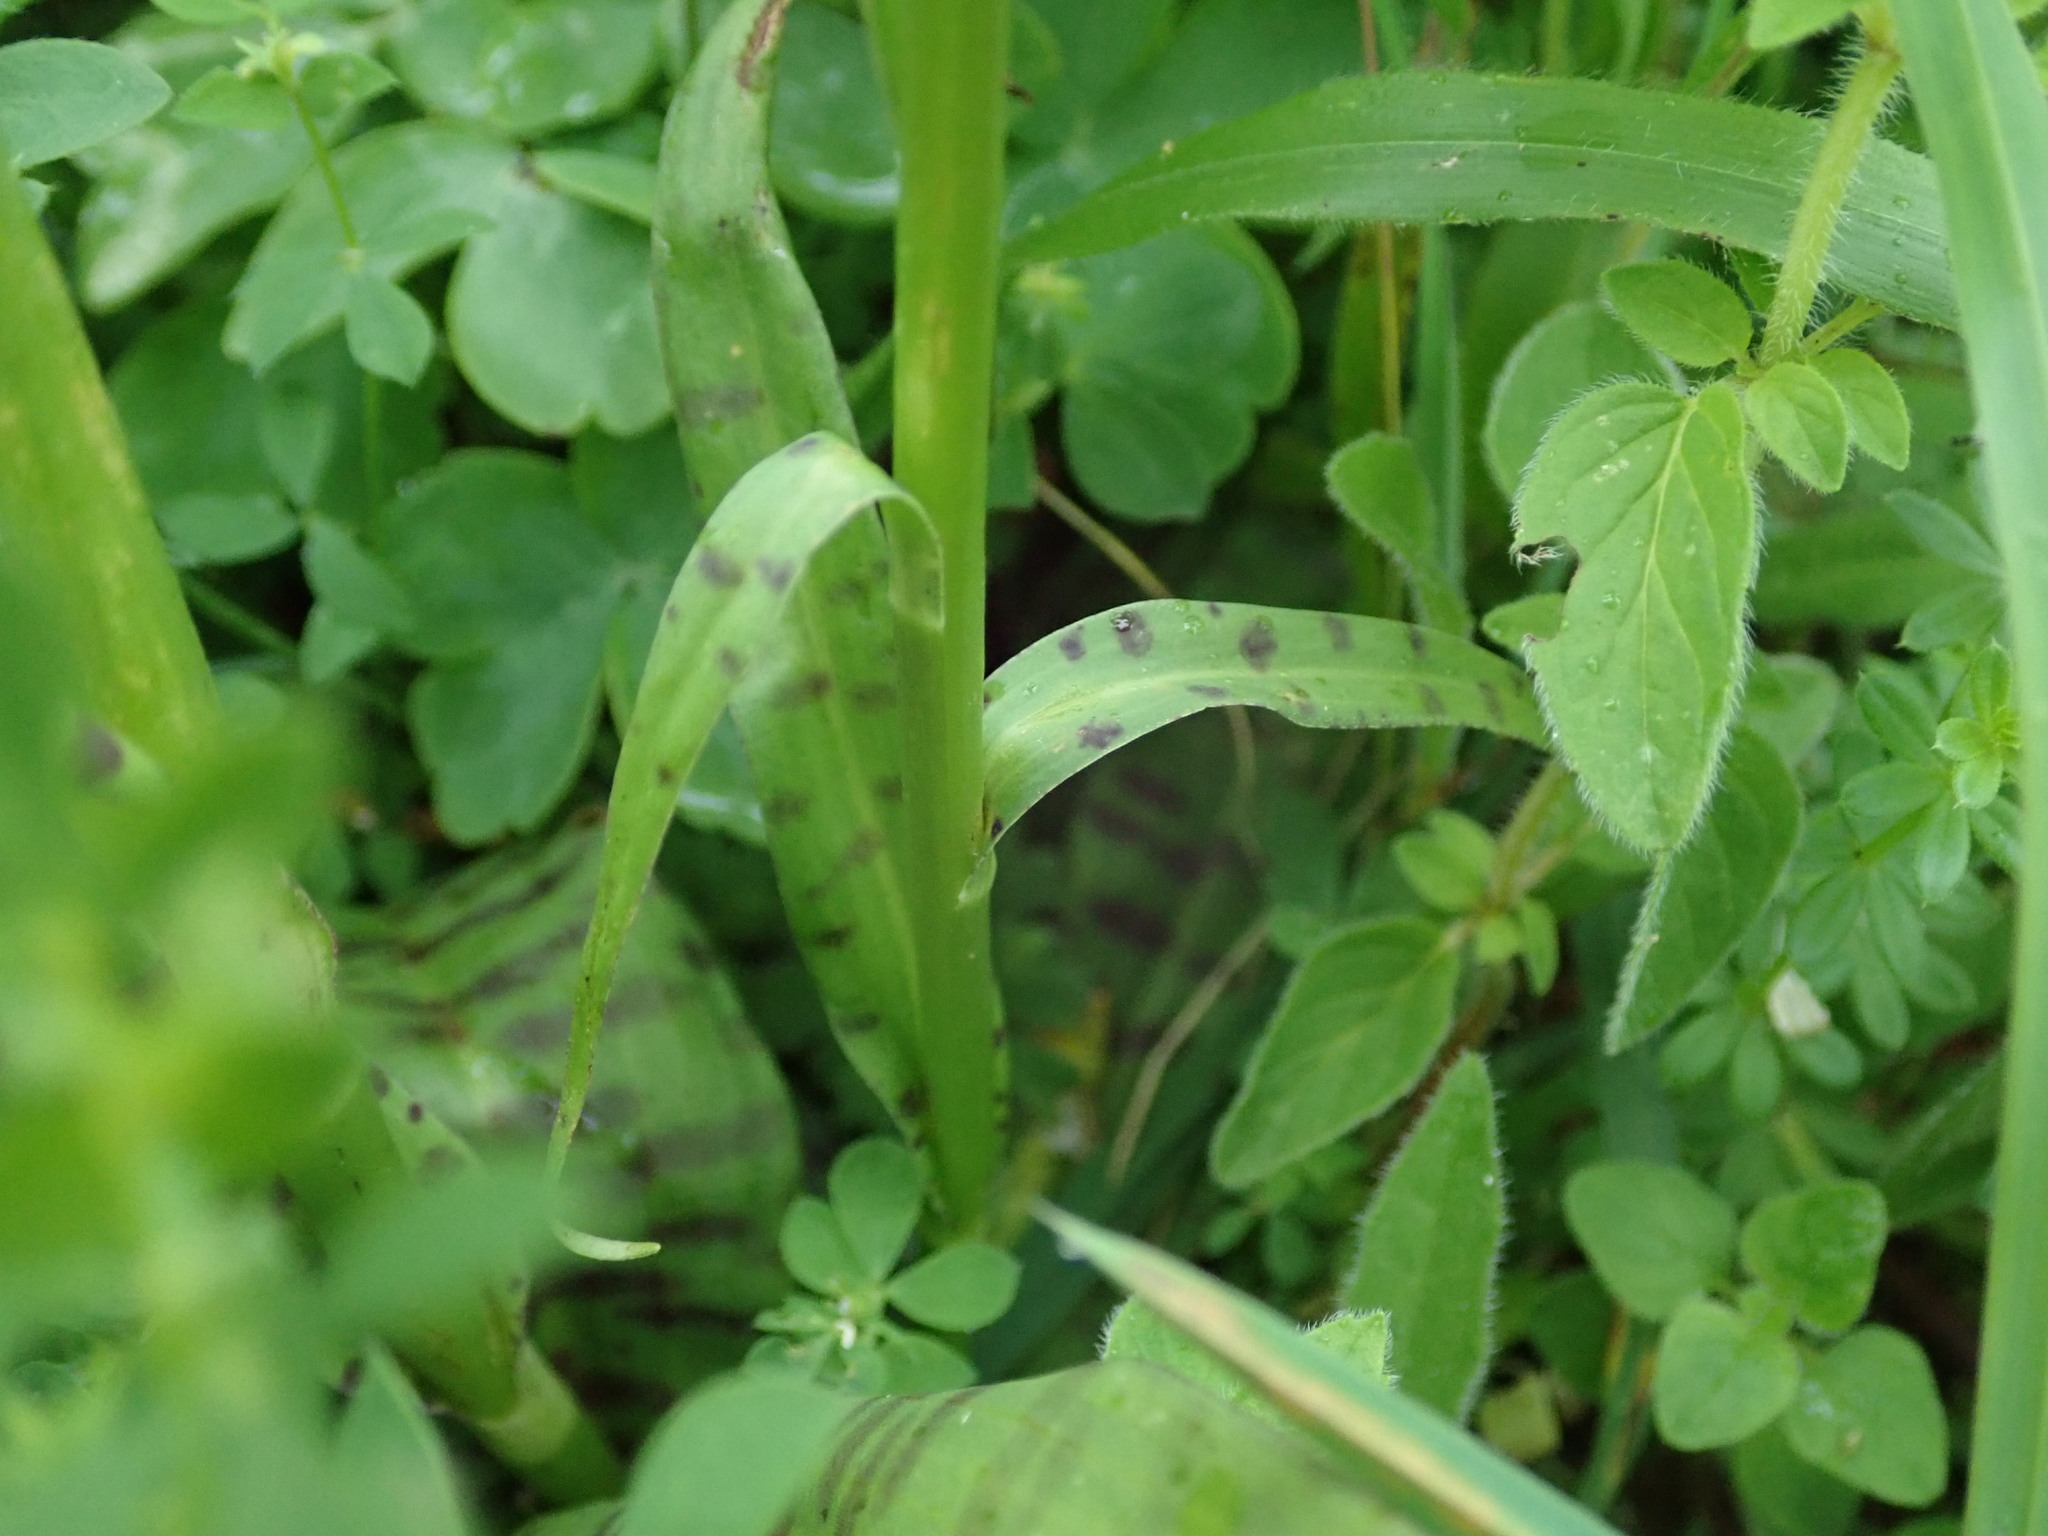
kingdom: Plantae
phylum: Tracheophyta
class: Liliopsida
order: Asparagales
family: Orchidaceae
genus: Dactylorhiza
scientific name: Dactylorhiza maculata
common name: Heath spotted-orchid
